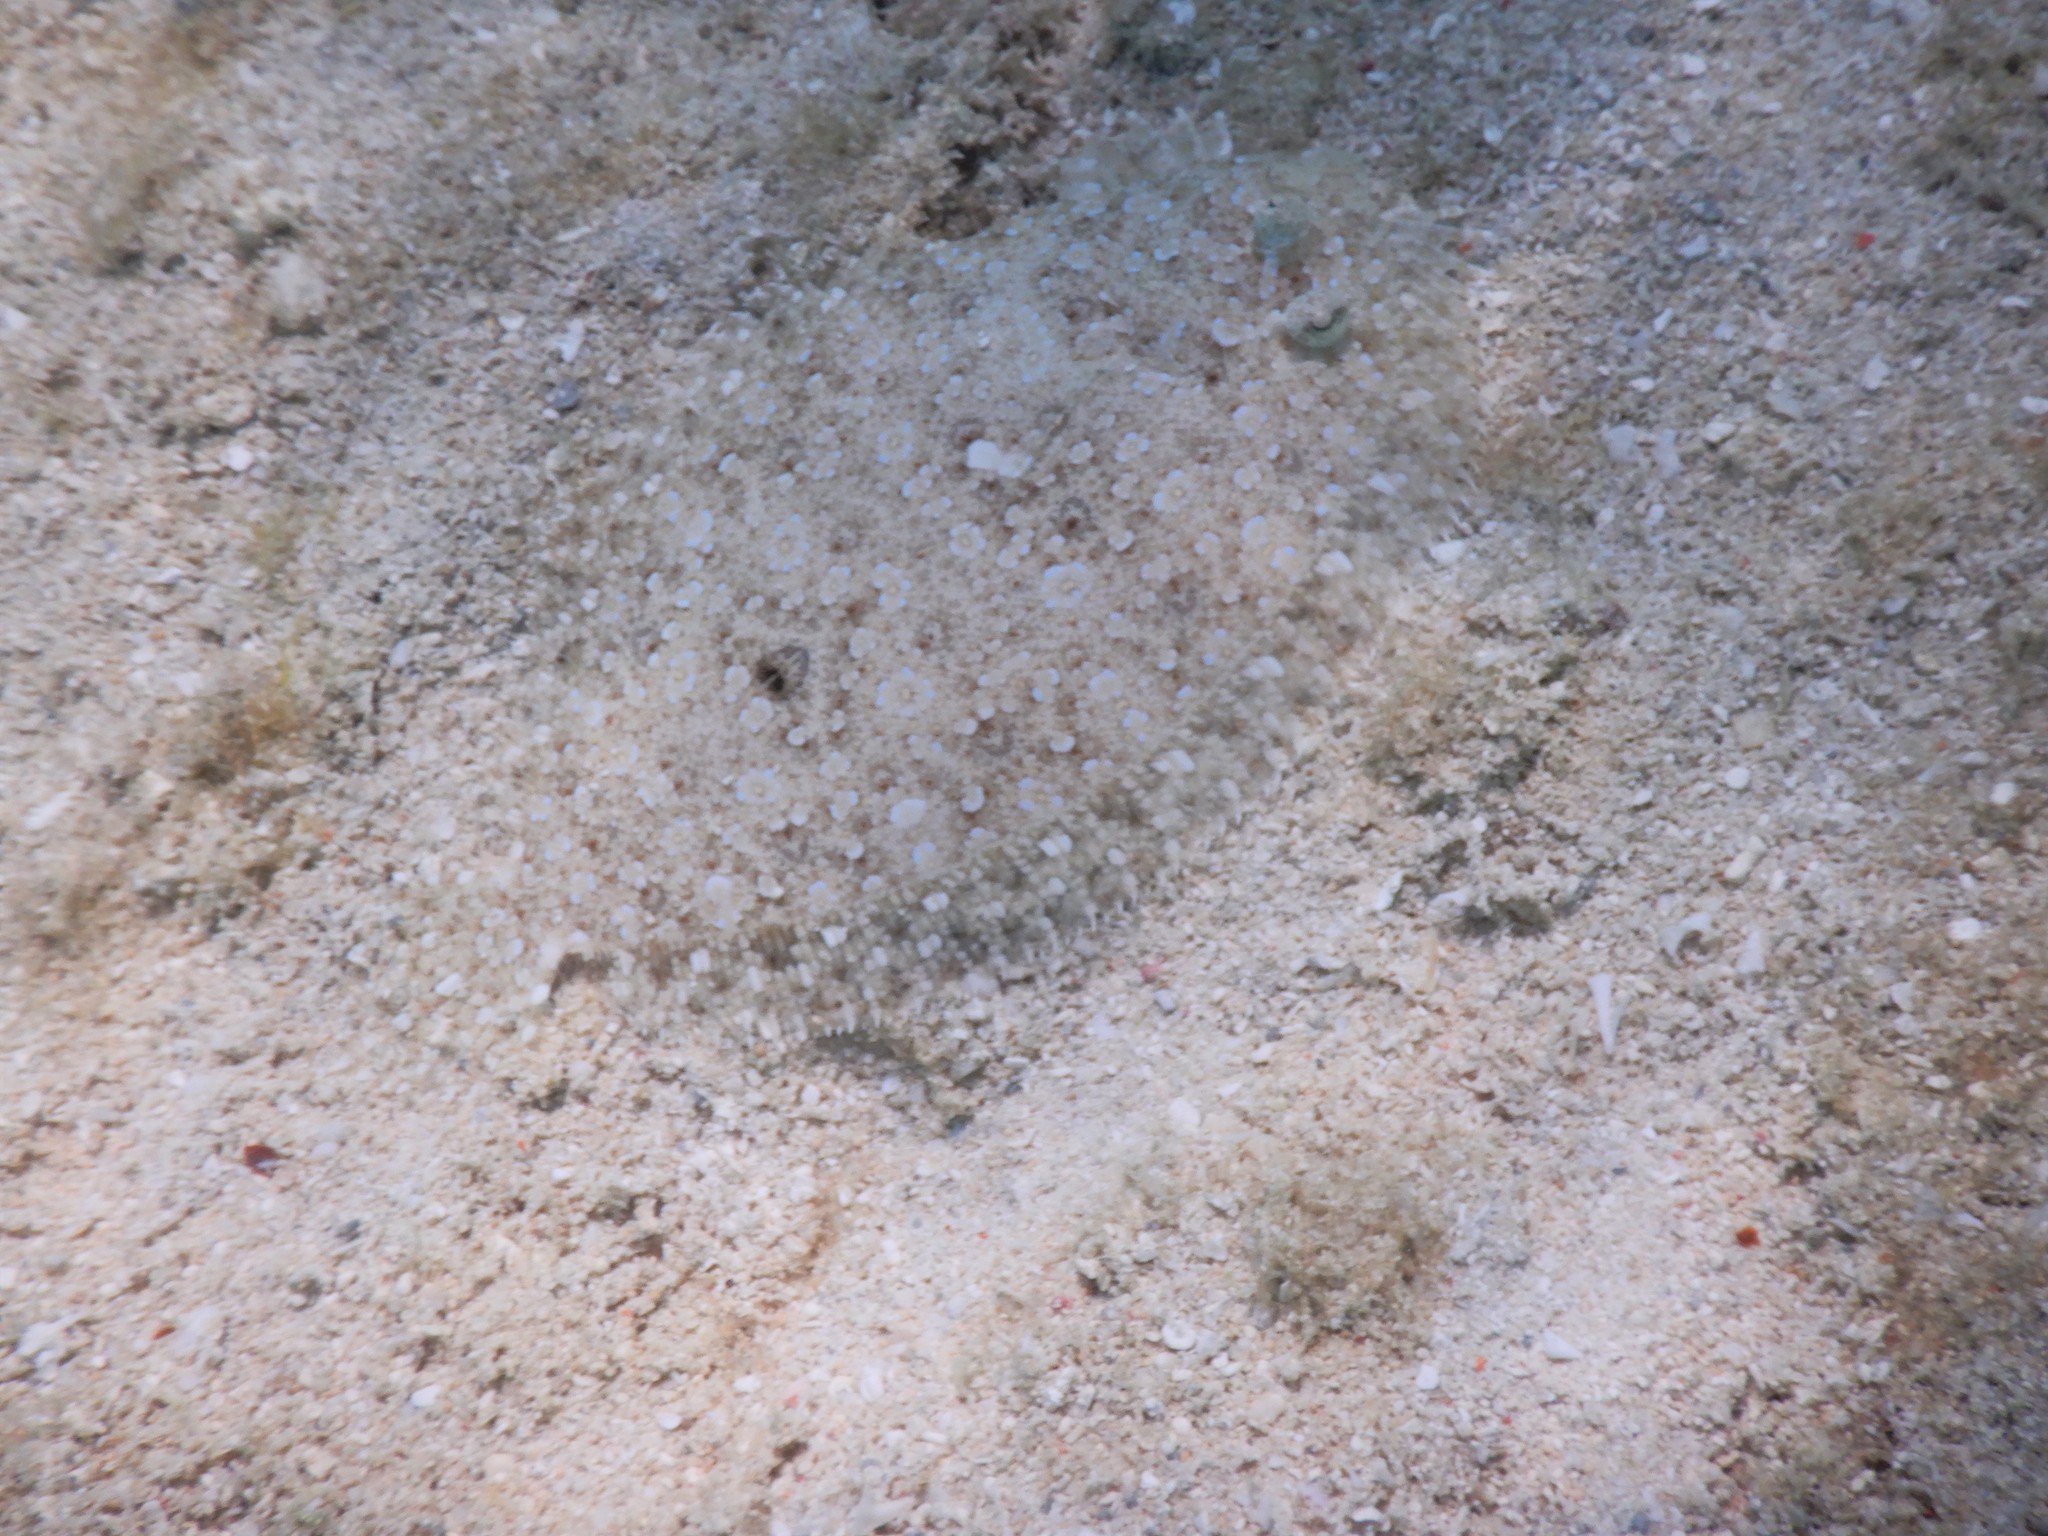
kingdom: Animalia
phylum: Chordata
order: Pleuronectiformes
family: Bothidae
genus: Bothus
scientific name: Bothus pantherinus
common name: Leopard flounder
